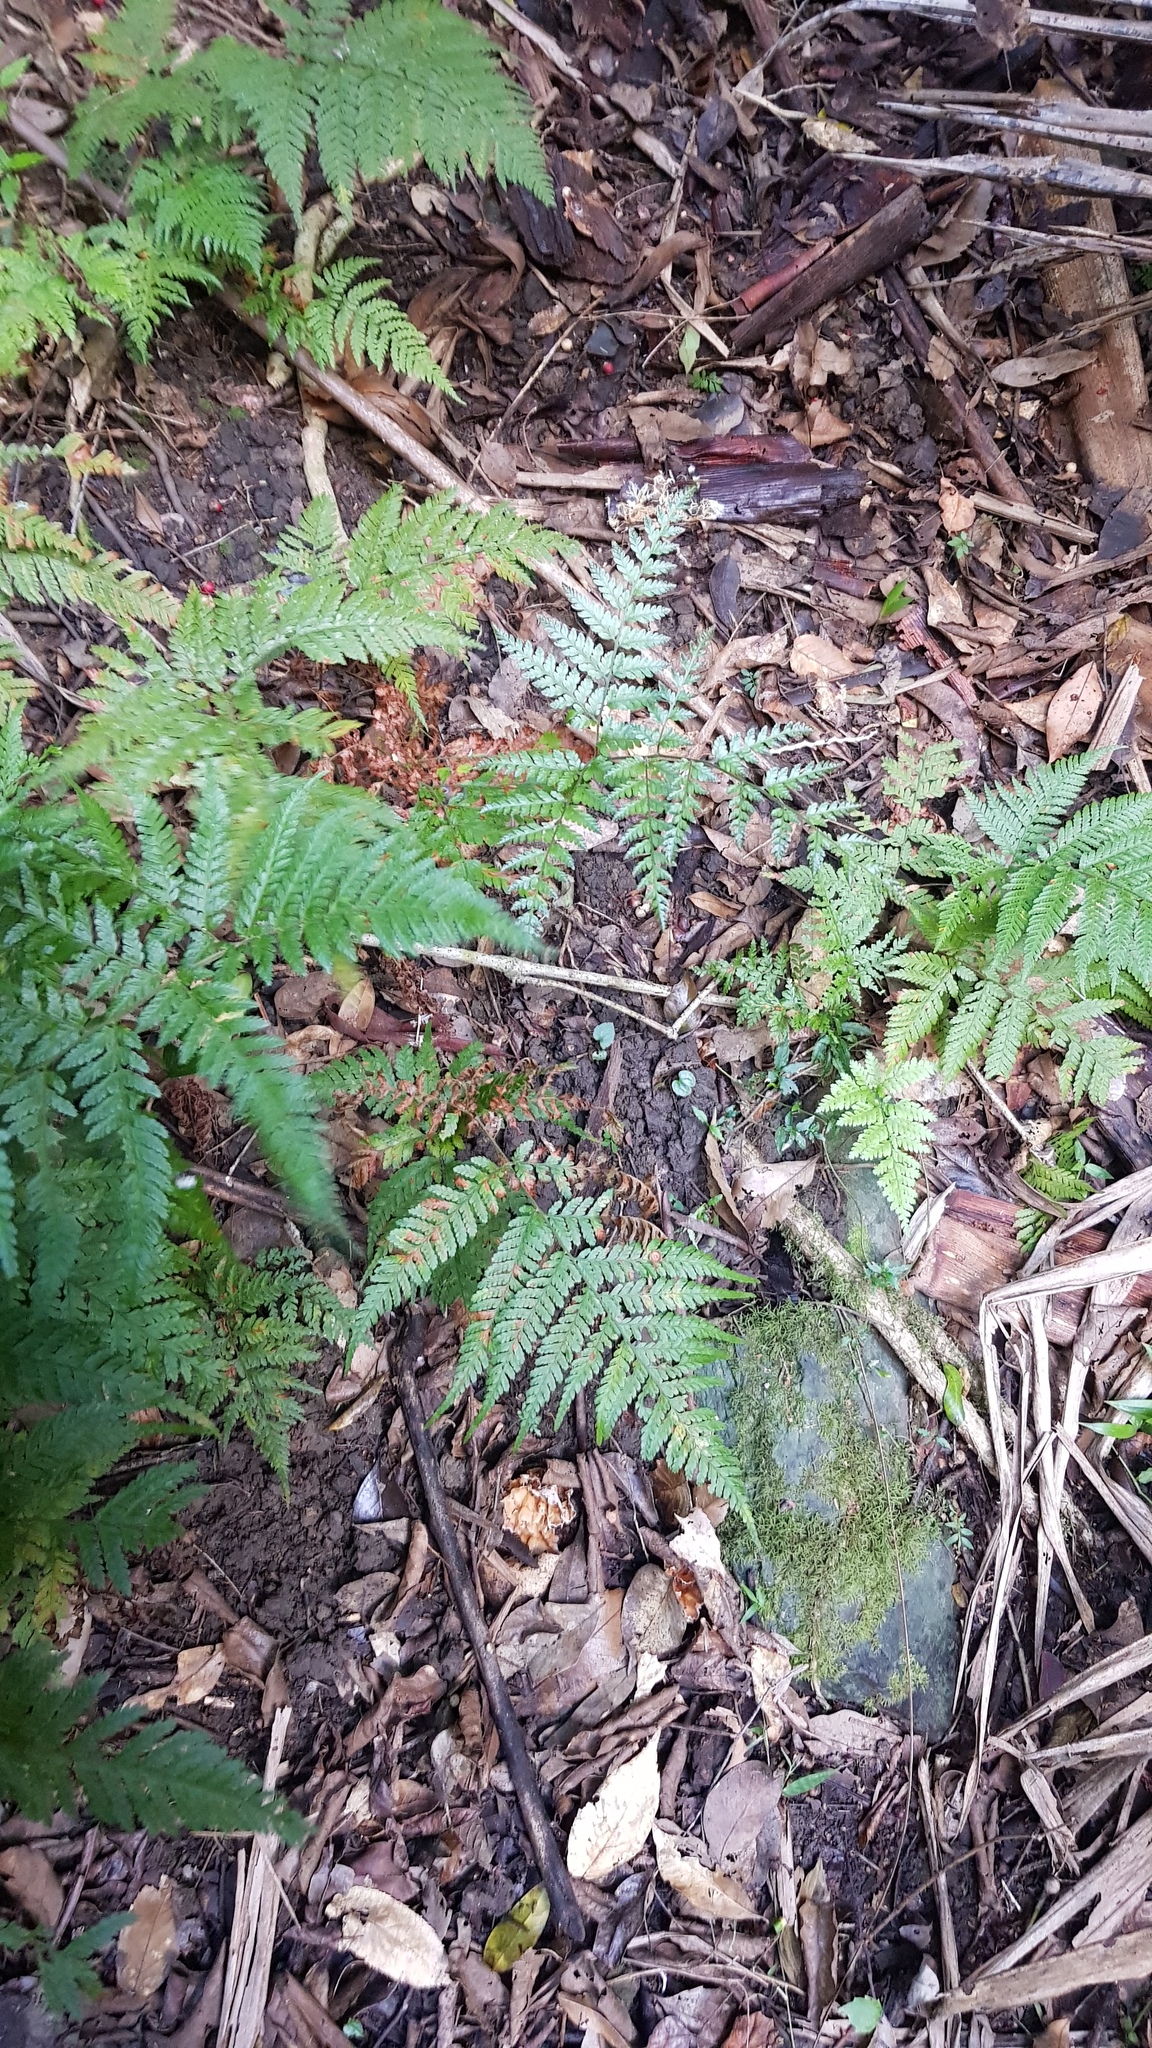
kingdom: Fungi
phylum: Basidiomycota
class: Agaricomycetes
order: Polyporales
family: Podoscyphaceae
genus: Podoscypha
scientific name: Podoscypha petalodes
